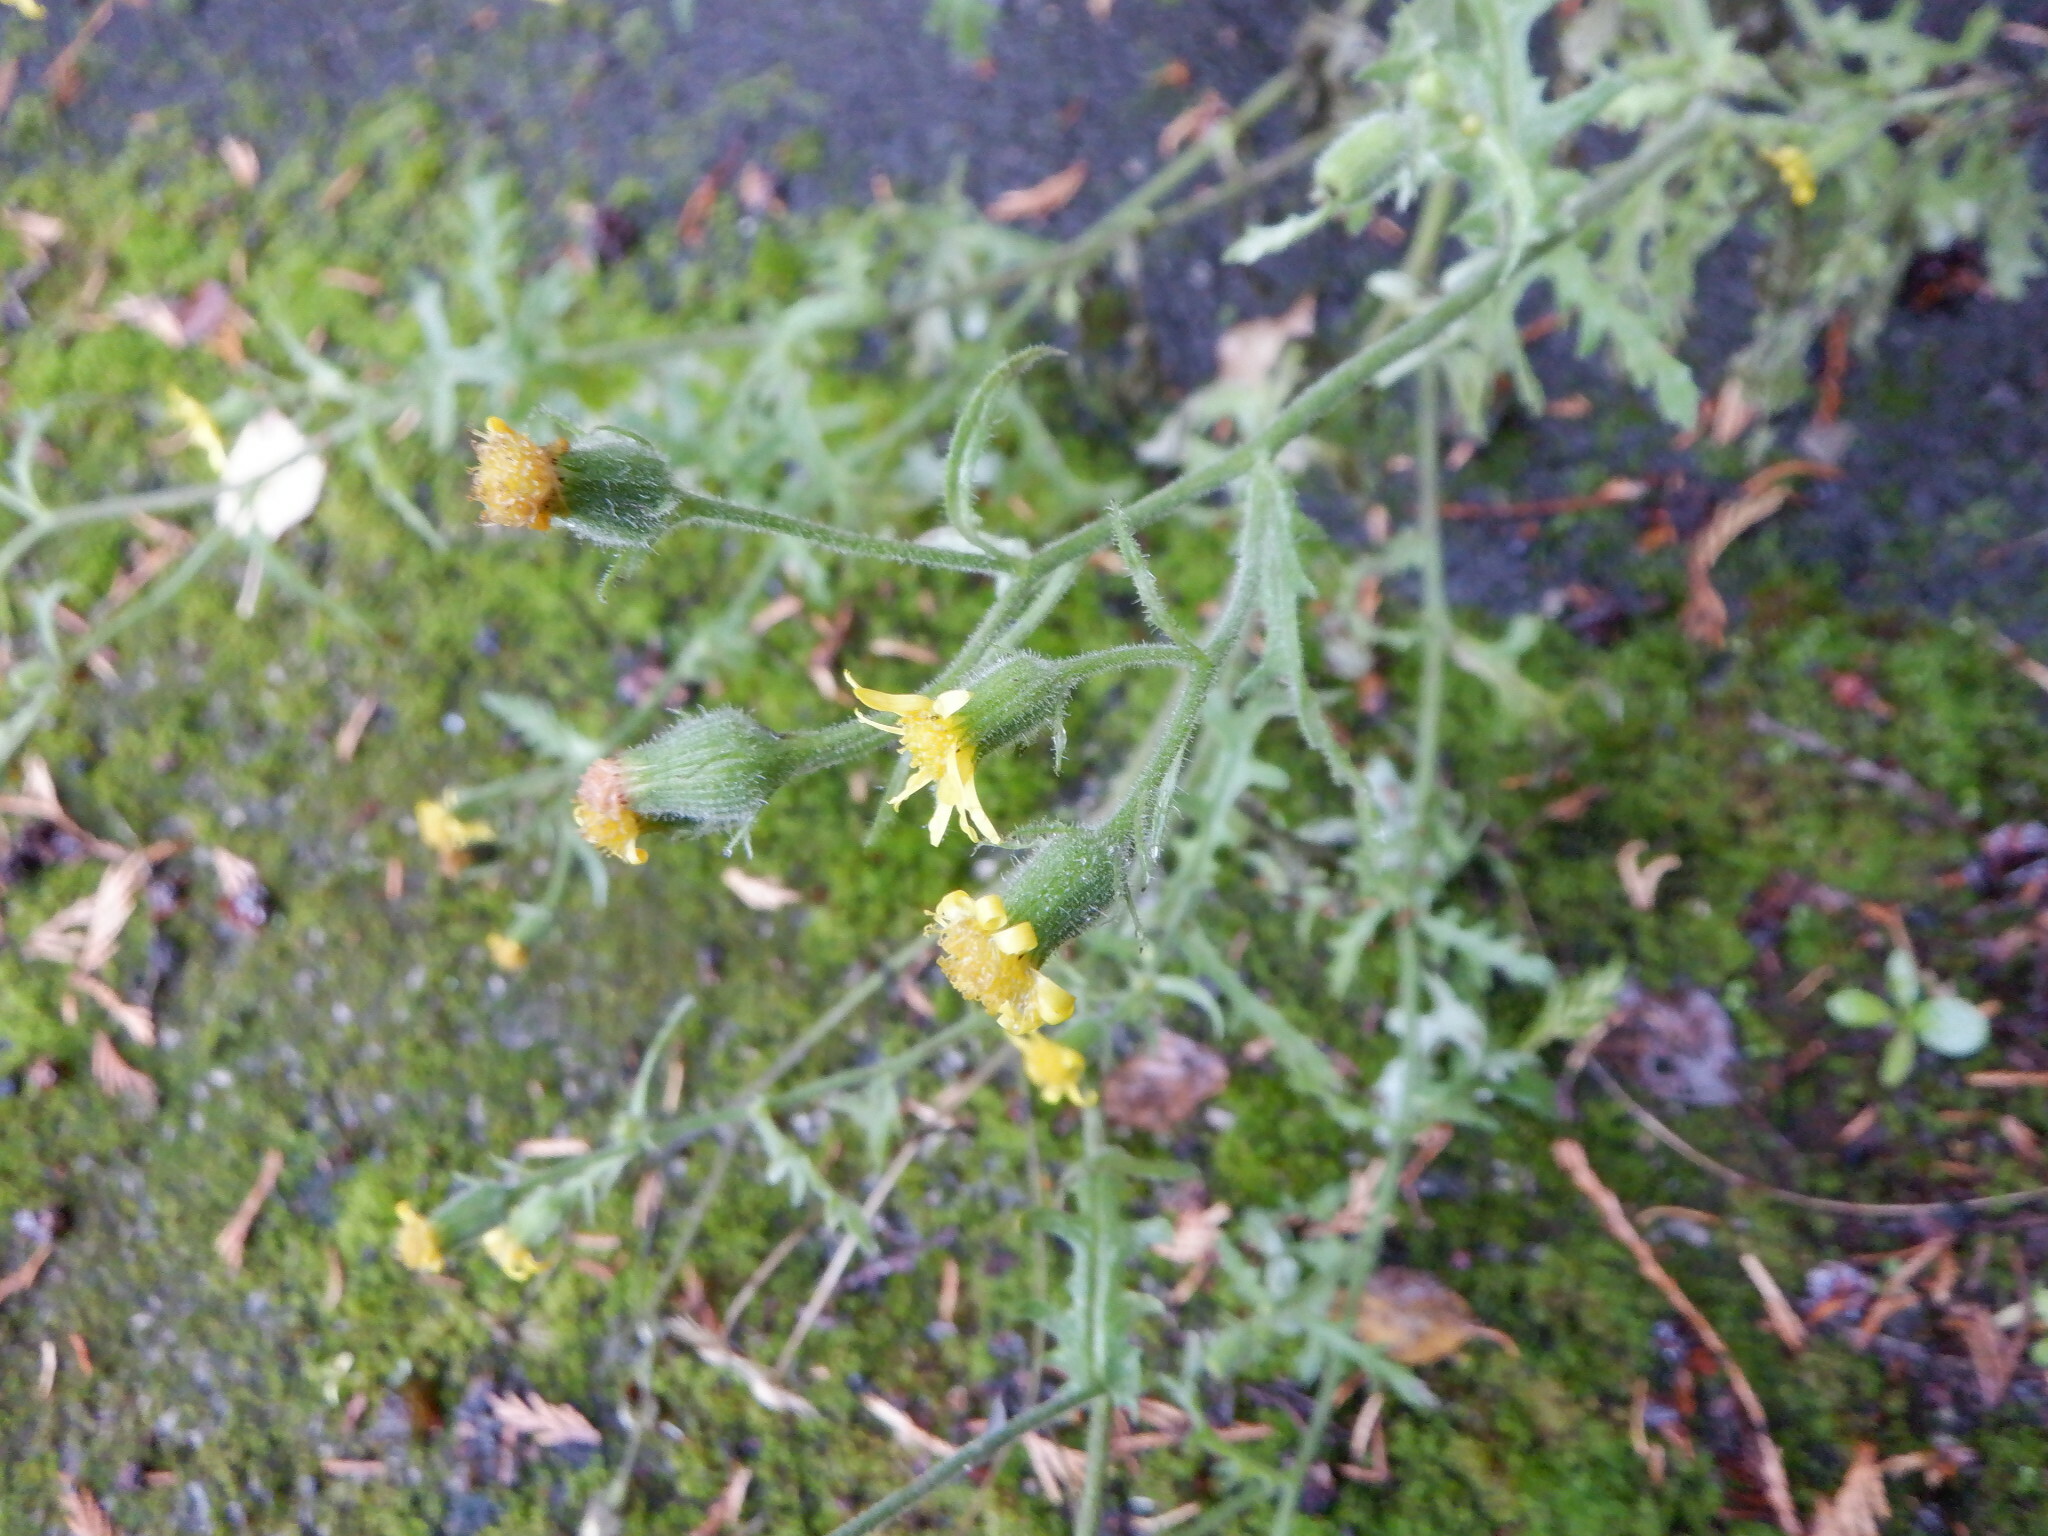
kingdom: Plantae
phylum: Tracheophyta
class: Magnoliopsida
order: Asterales
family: Asteraceae
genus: Senecio
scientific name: Senecio viscosus
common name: Sticky groundsel
